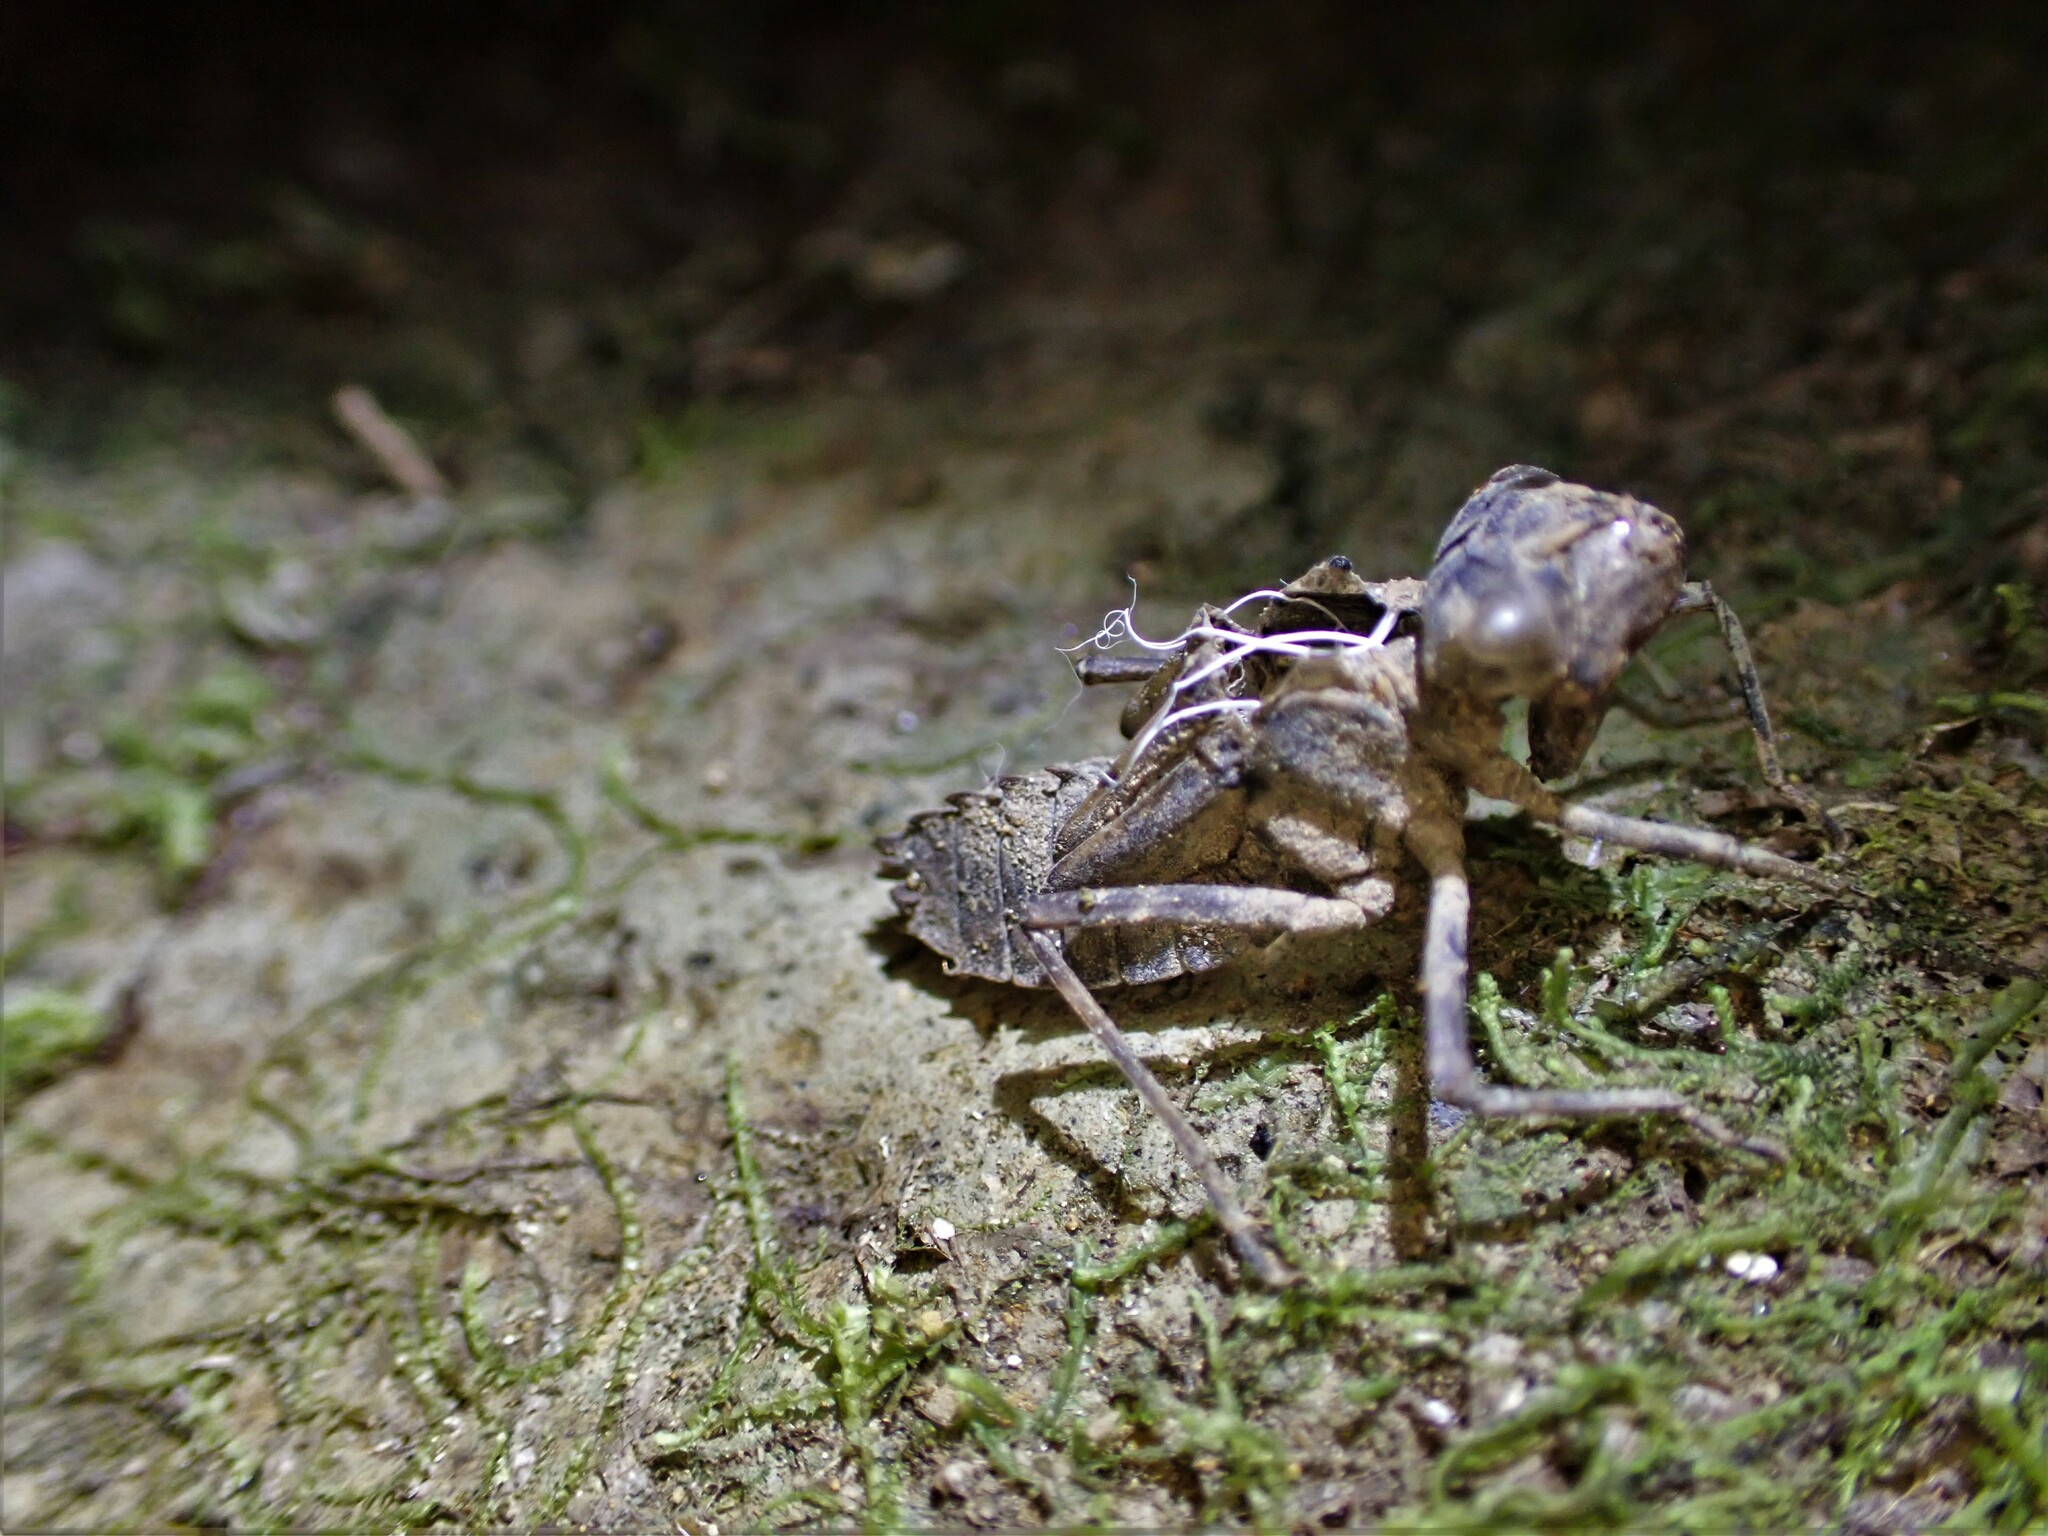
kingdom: Animalia
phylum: Arthropoda
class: Insecta
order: Odonata
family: Corduliidae
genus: Antipodochlora
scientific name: Antipodochlora braueri
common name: Dusk dragonfly
